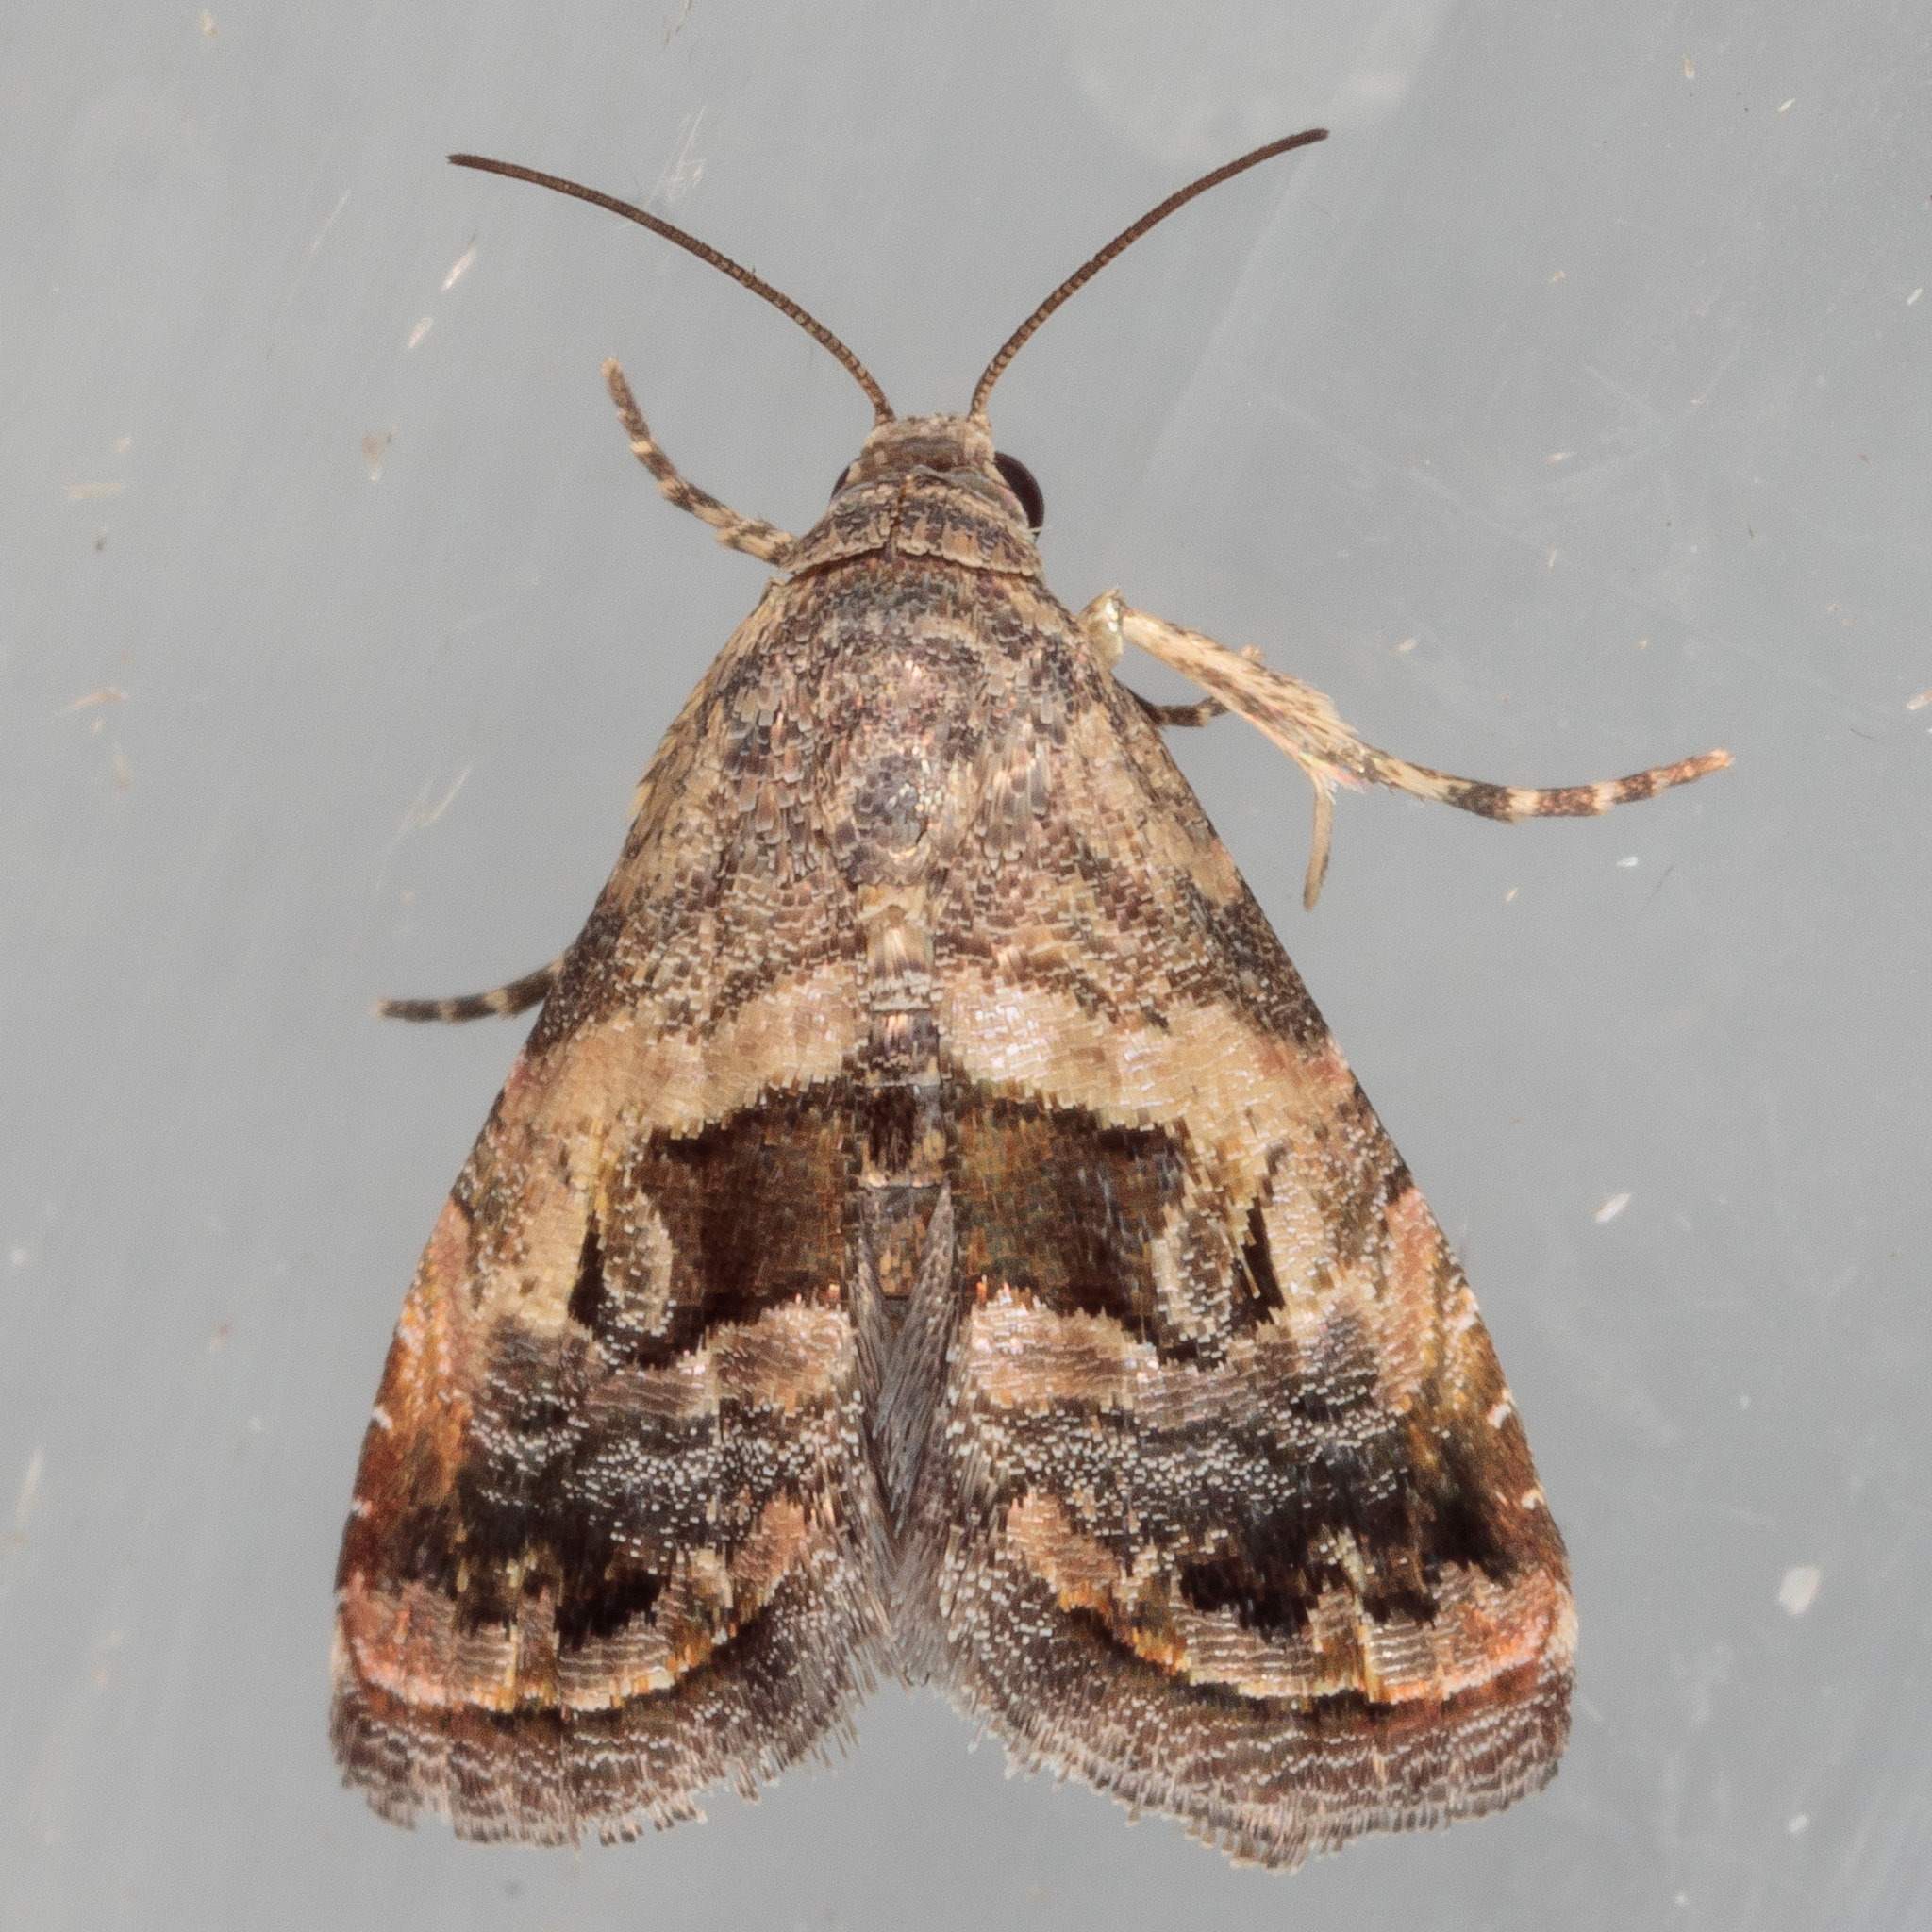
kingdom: Animalia
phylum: Arthropoda
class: Insecta
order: Lepidoptera
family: Noctuidae
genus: Tripudia
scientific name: Tripudia quadrifera
